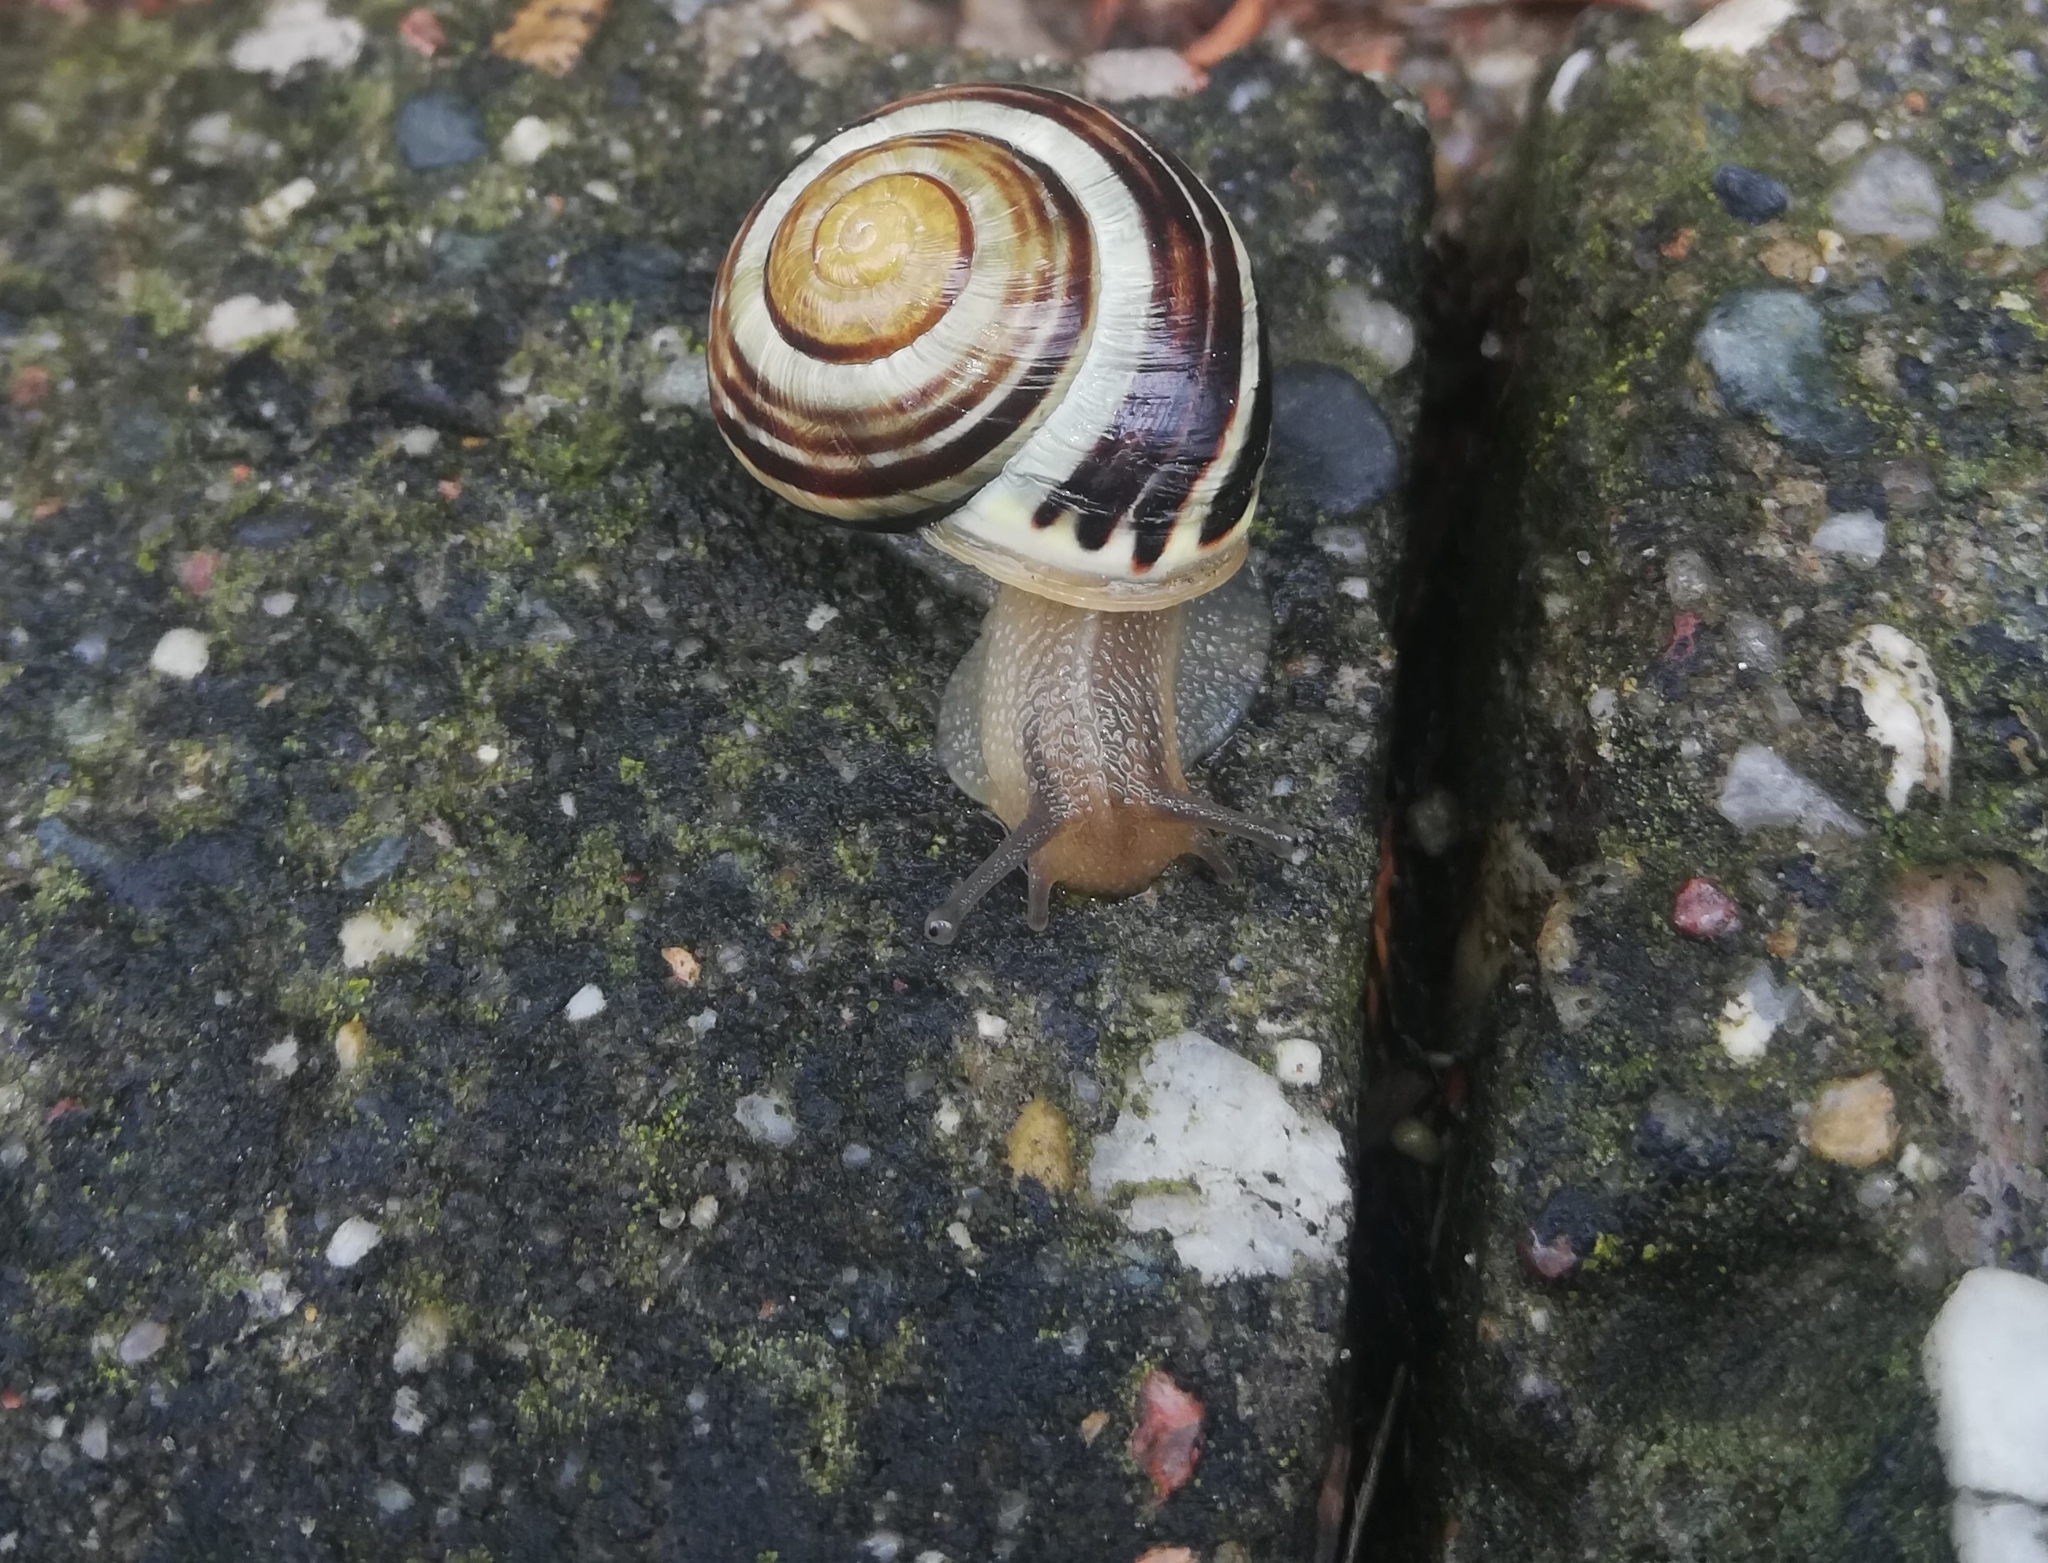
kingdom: Animalia
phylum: Mollusca
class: Gastropoda
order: Stylommatophora
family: Helicidae
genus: Cepaea
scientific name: Cepaea hortensis
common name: White-lip gardensnail
